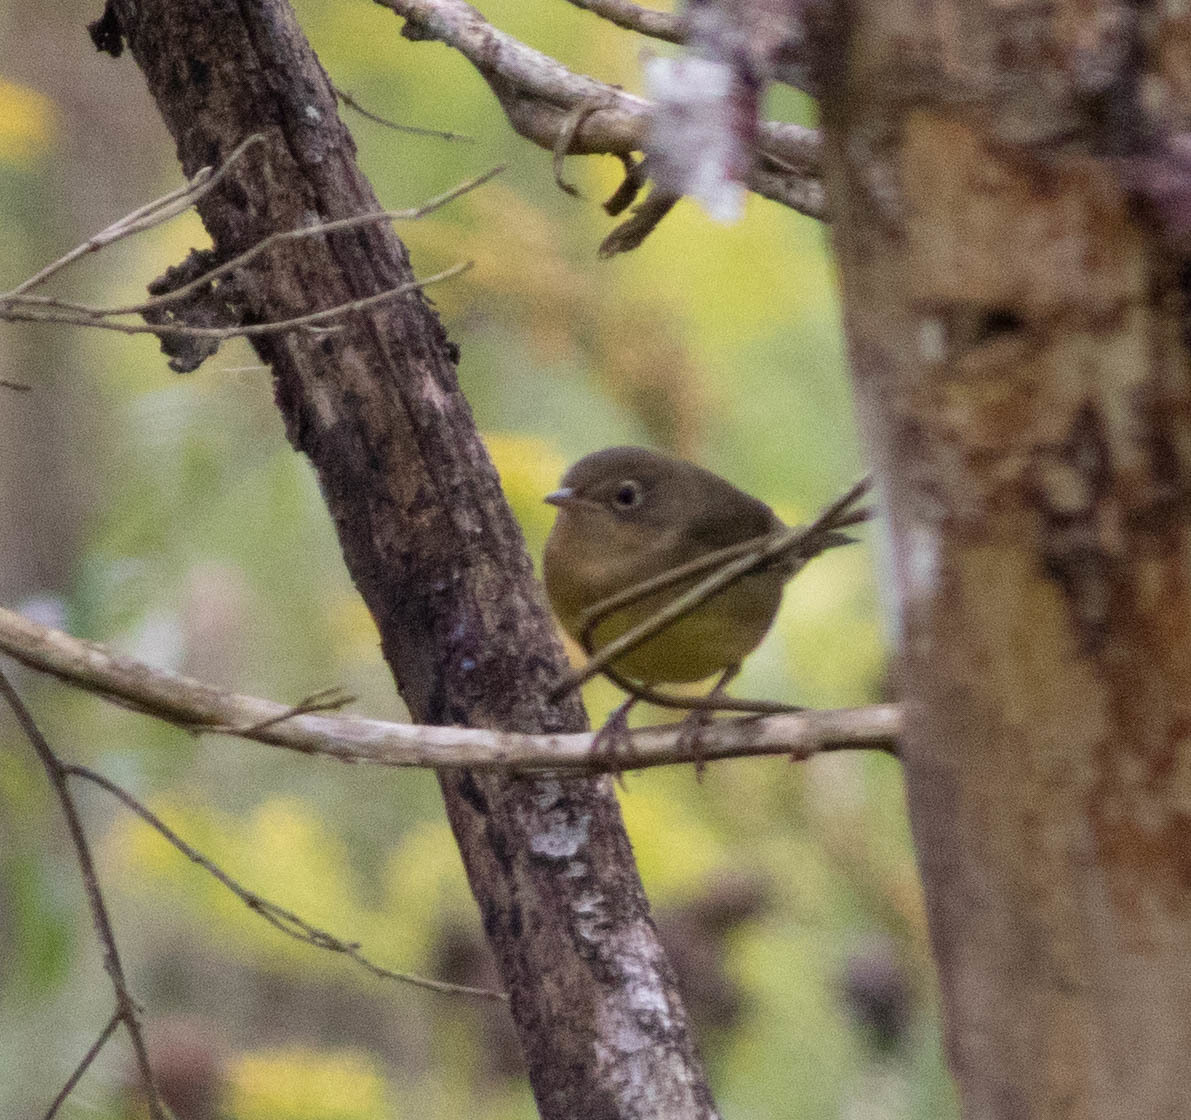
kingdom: Animalia
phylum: Chordata
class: Aves
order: Passeriformes
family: Parulidae
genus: Oporornis
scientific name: Oporornis agilis
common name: Connecticut warbler
